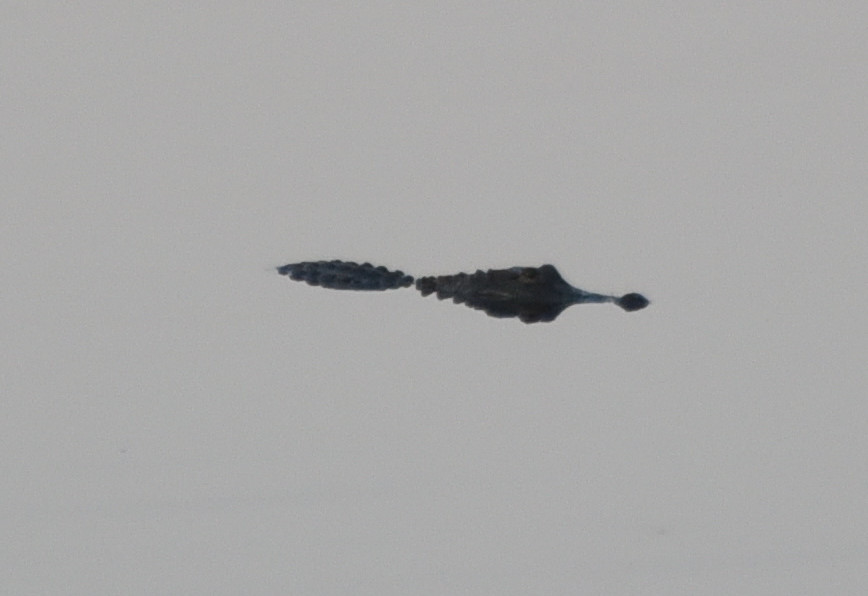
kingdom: Animalia
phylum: Chordata
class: Crocodylia
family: Alligatoridae
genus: Alligator
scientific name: Alligator mississippiensis
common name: American alligator
